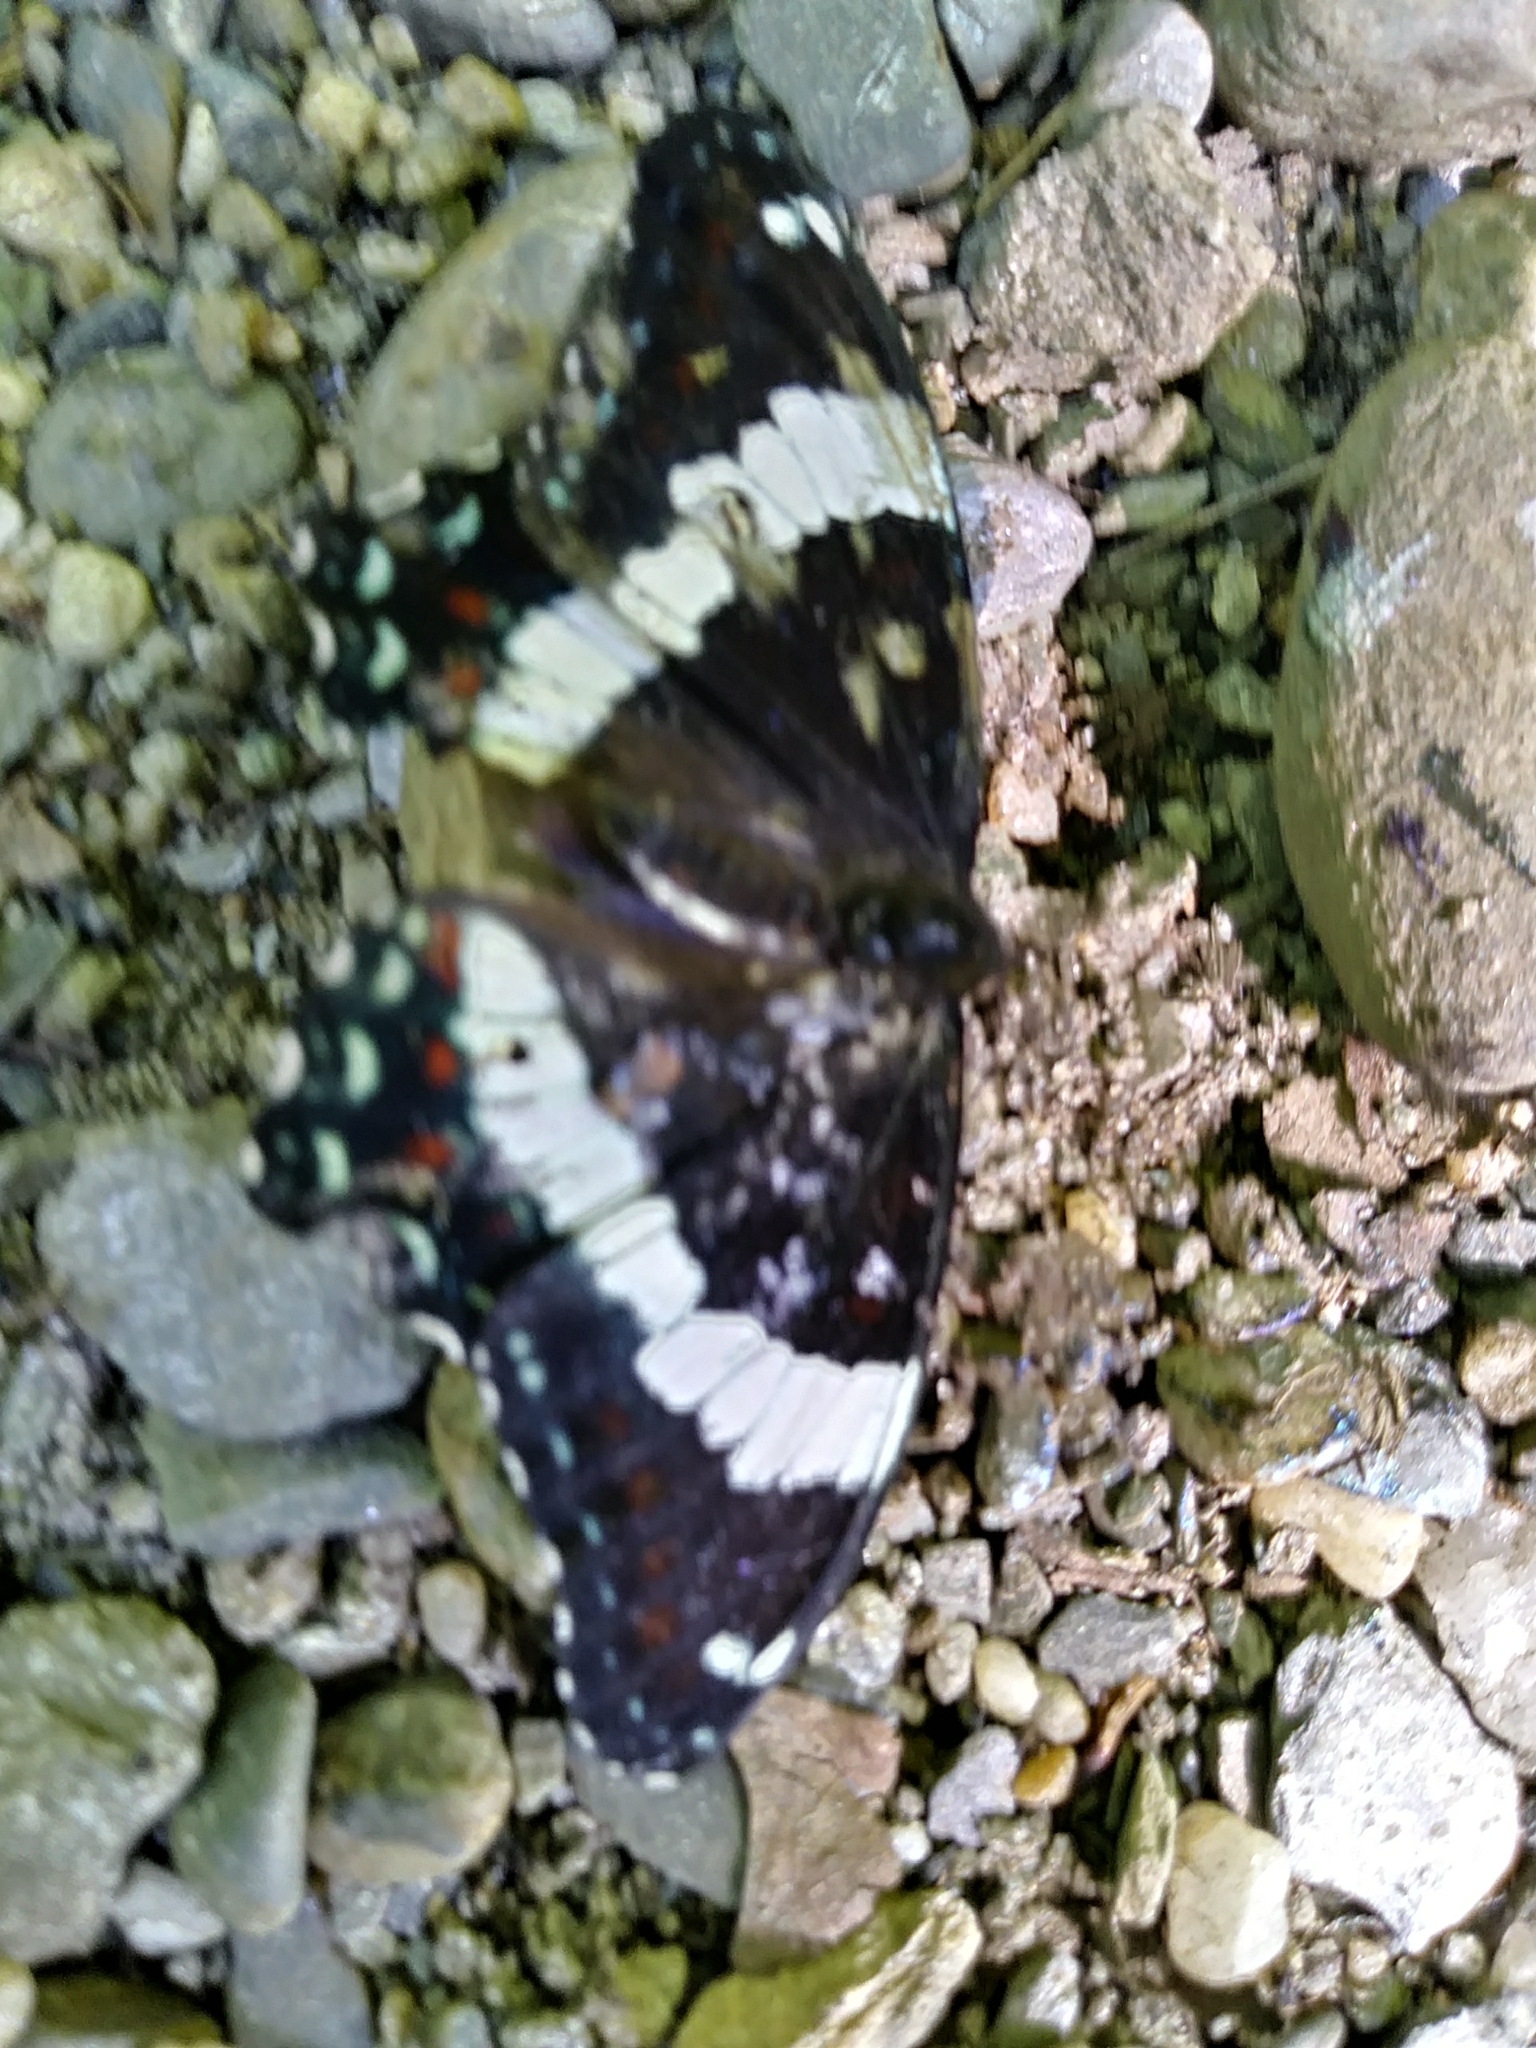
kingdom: Animalia
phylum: Arthropoda
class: Insecta
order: Lepidoptera
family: Nymphalidae
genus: Limenitis
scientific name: Limenitis arthemis
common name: Red-spotted admiral
